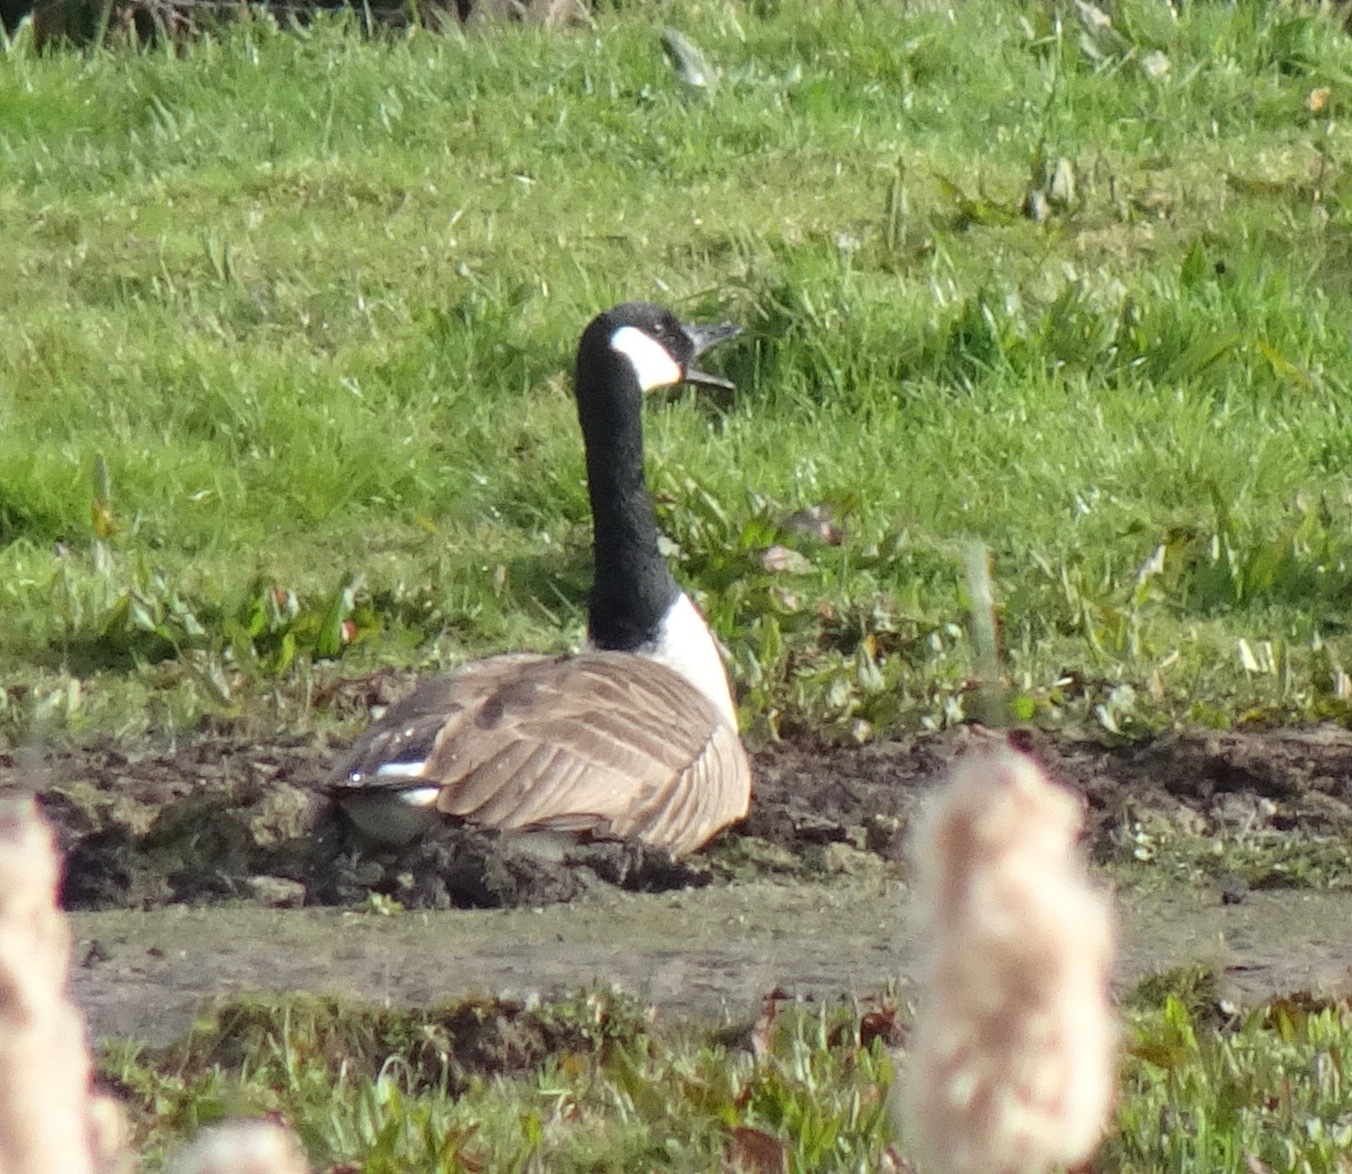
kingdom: Animalia
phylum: Chordata
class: Aves
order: Anseriformes
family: Anatidae
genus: Branta
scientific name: Branta canadensis
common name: Canada goose
